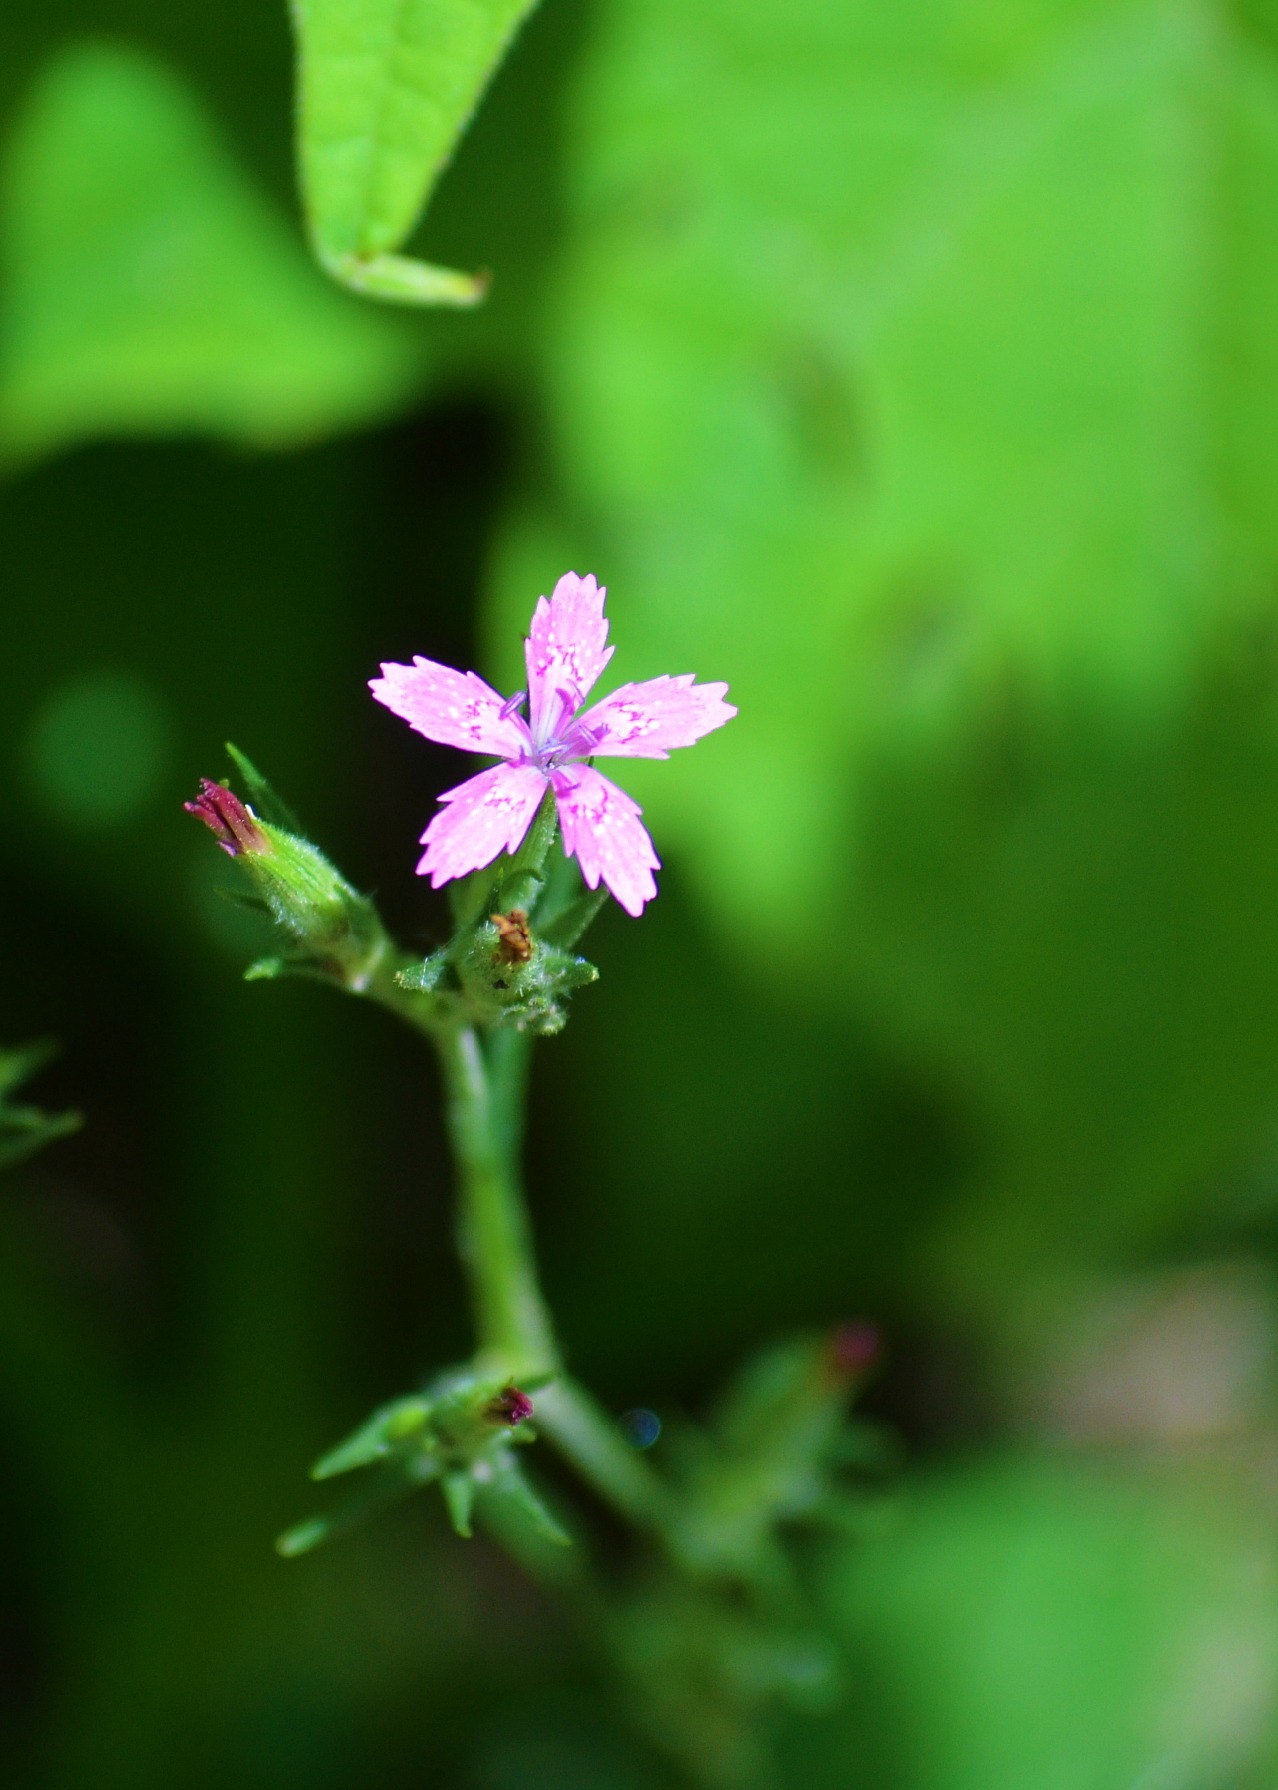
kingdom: Plantae
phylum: Tracheophyta
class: Magnoliopsida
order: Caryophyllales
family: Caryophyllaceae
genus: Dianthus
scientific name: Dianthus armeria
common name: Deptford pink
